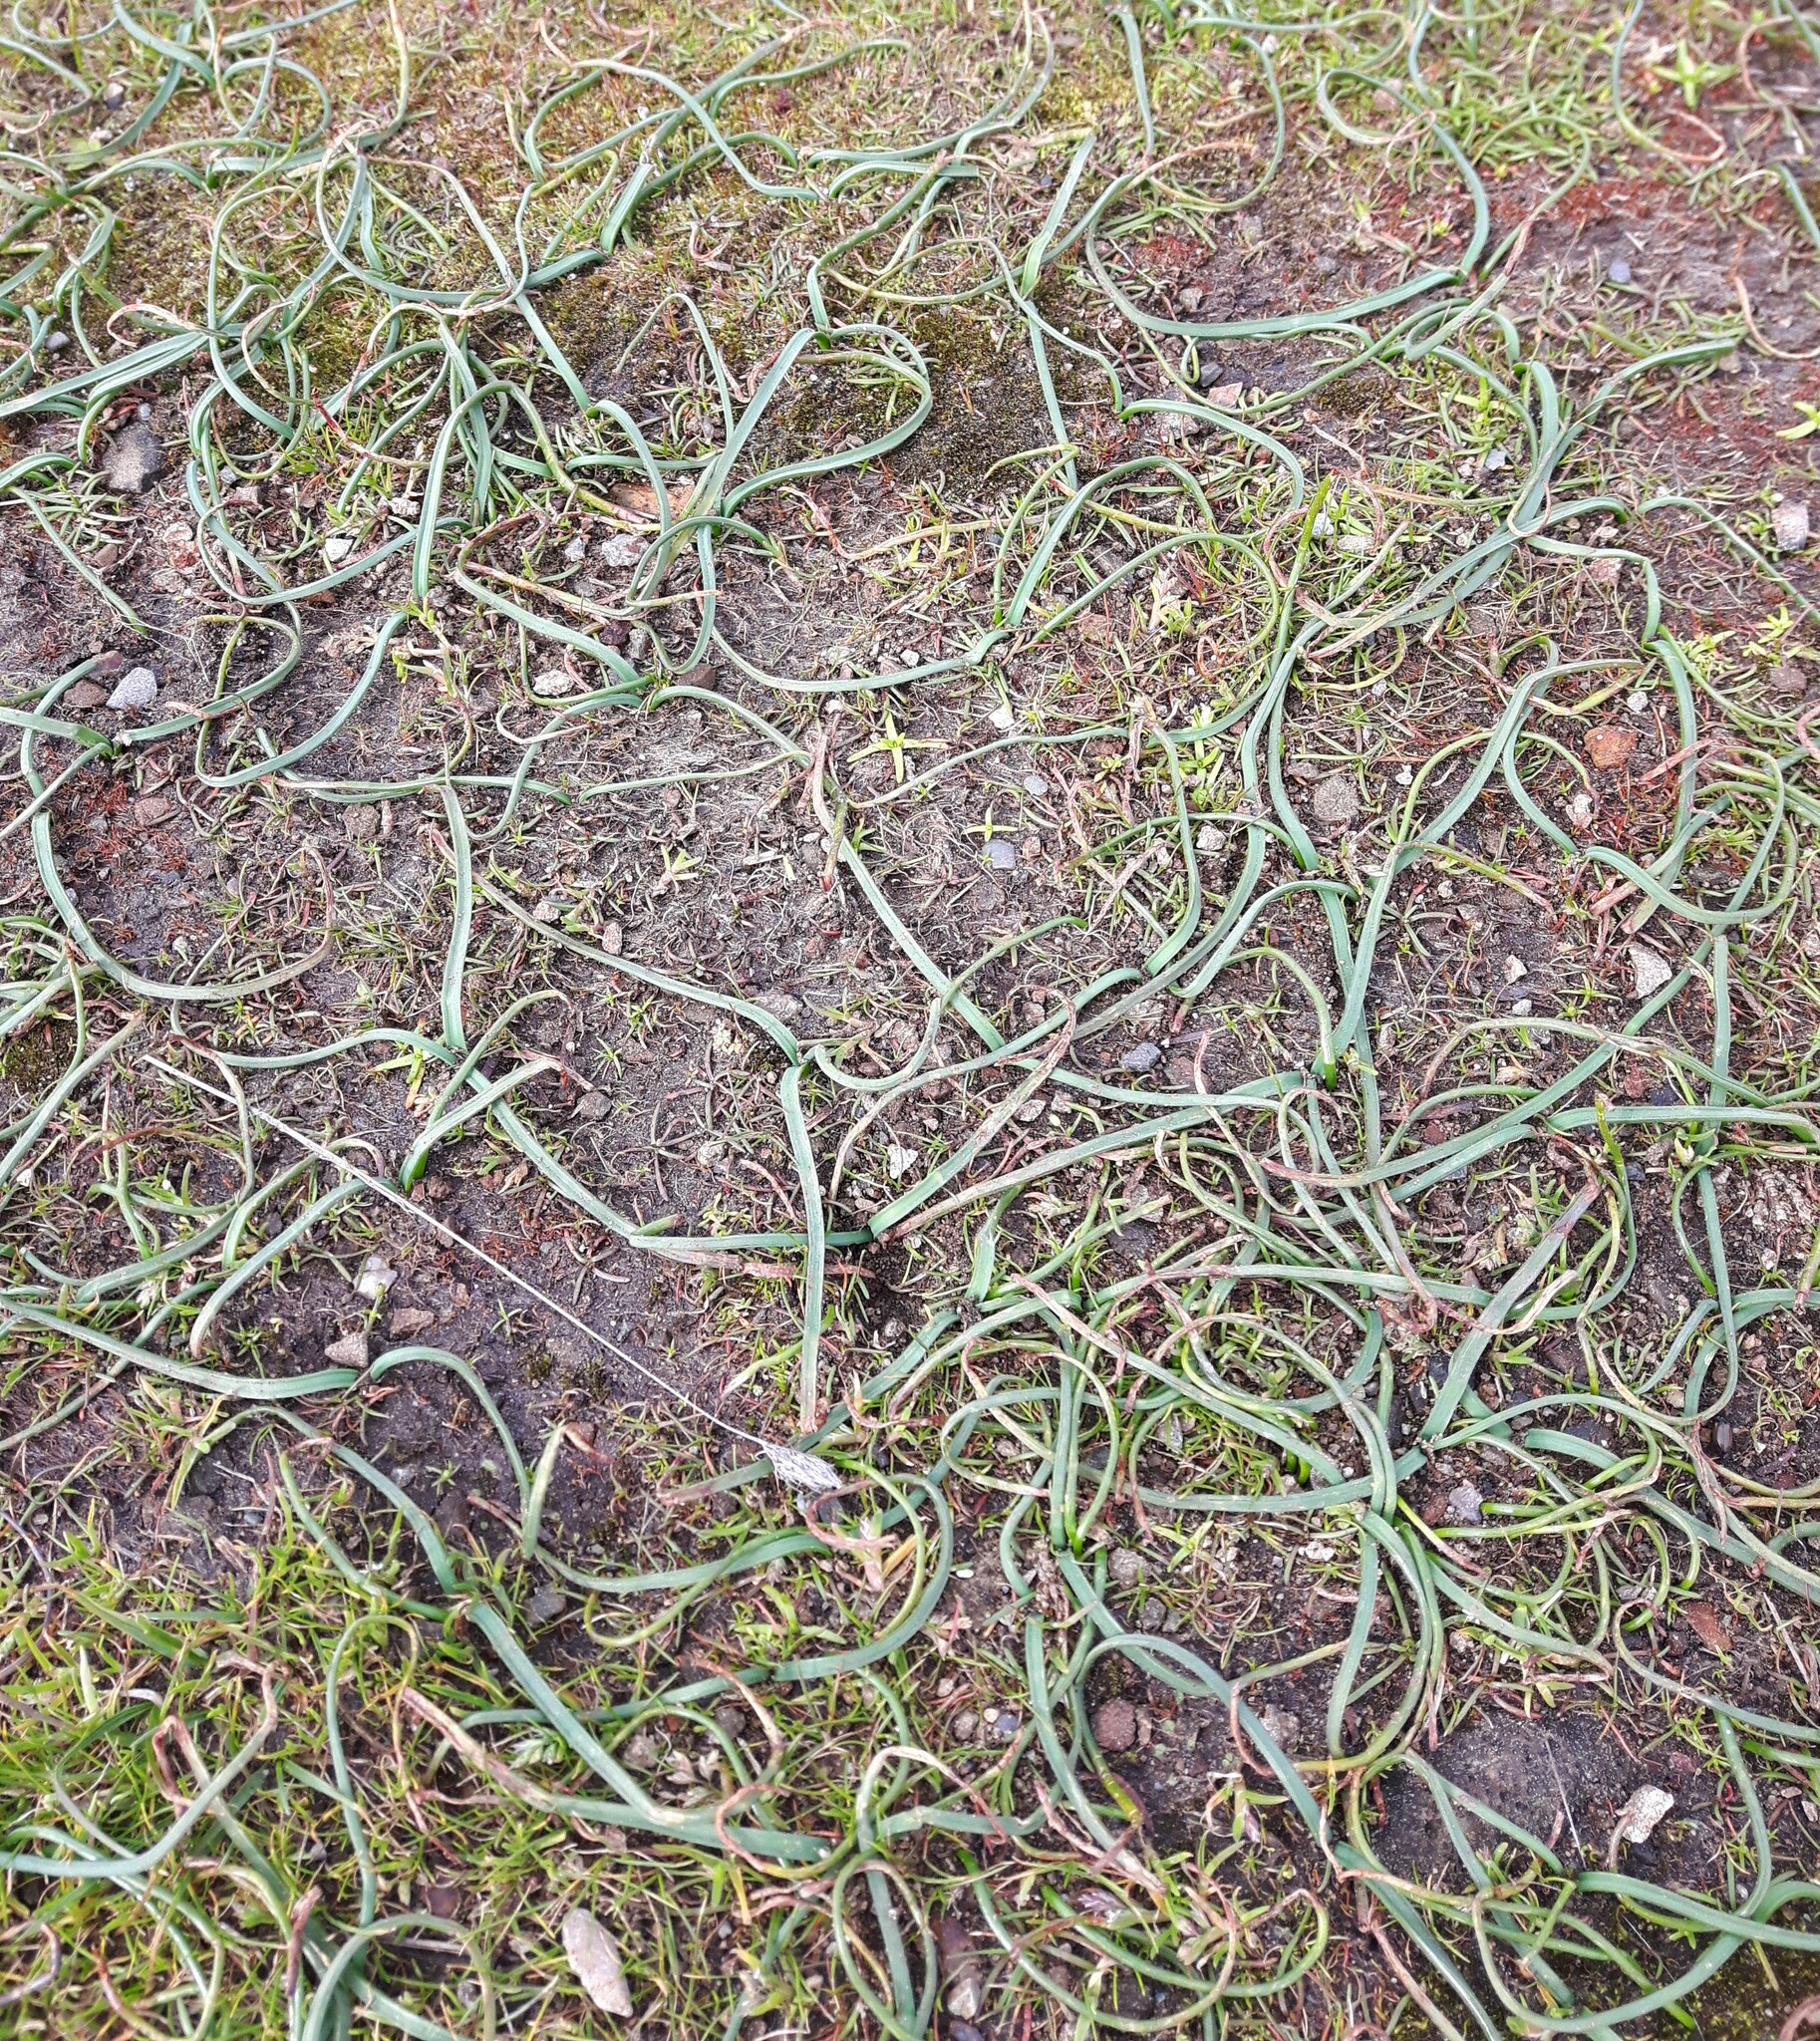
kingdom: Plantae
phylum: Tracheophyta
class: Liliopsida
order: Asparagales
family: Amaryllidaceae
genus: Allium
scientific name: Allium acuminatum
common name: Hooker's onion
